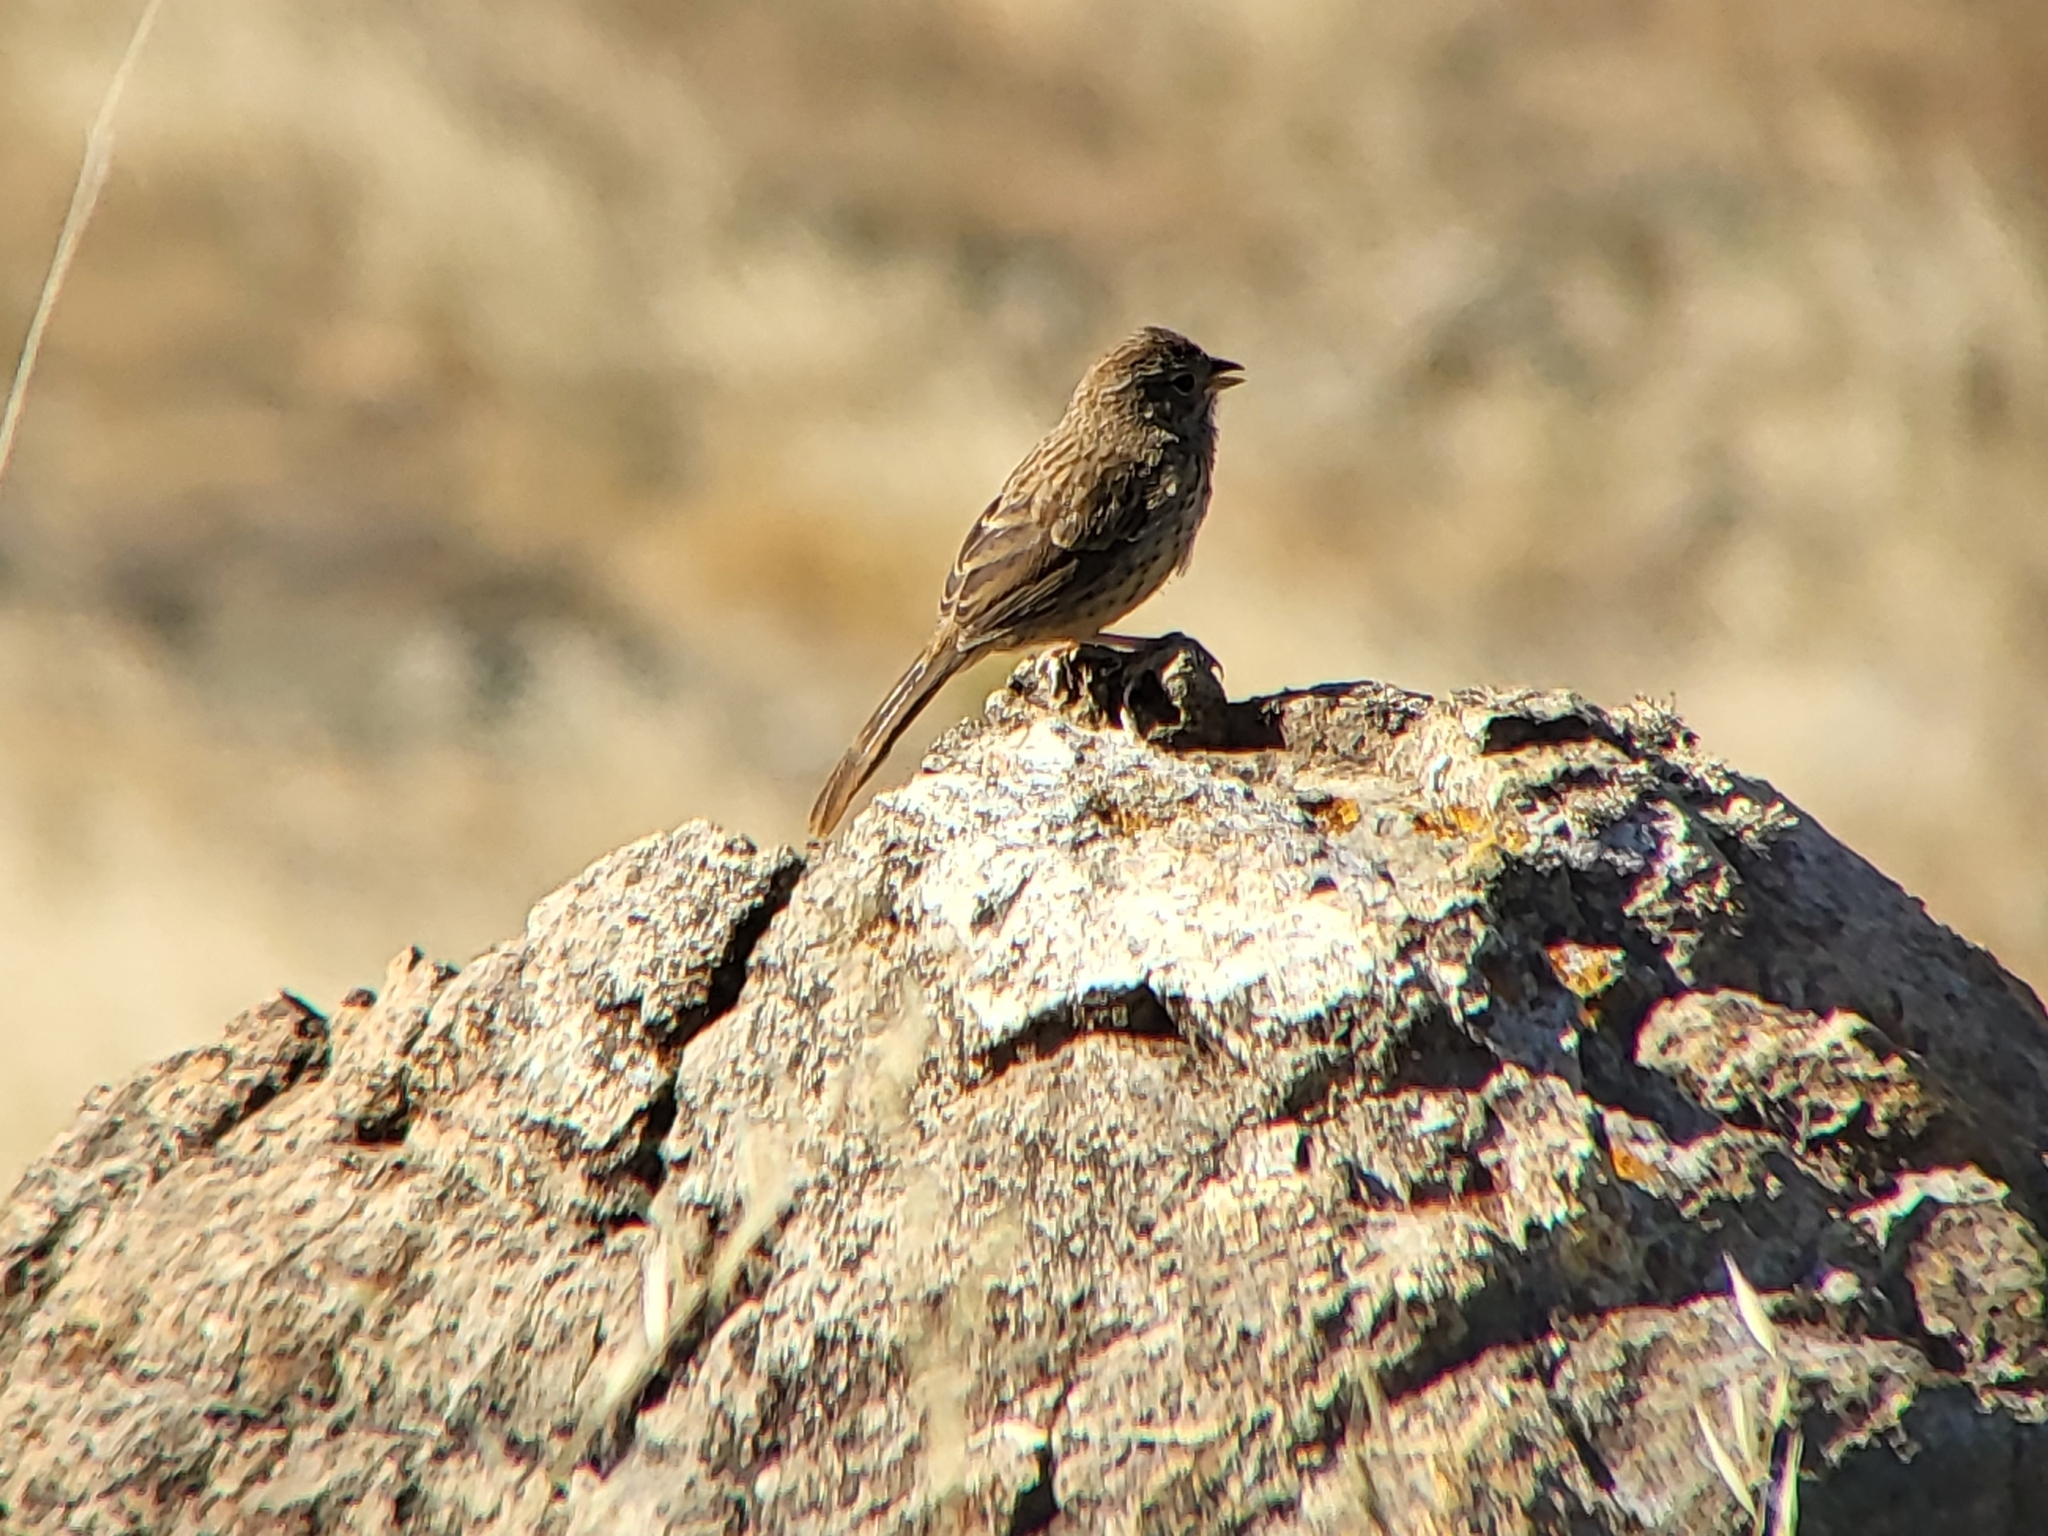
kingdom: Animalia
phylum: Chordata
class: Aves
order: Passeriformes
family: Passerellidae
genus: Aimophila
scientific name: Aimophila ruficeps
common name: Rufous-crowned sparrow
